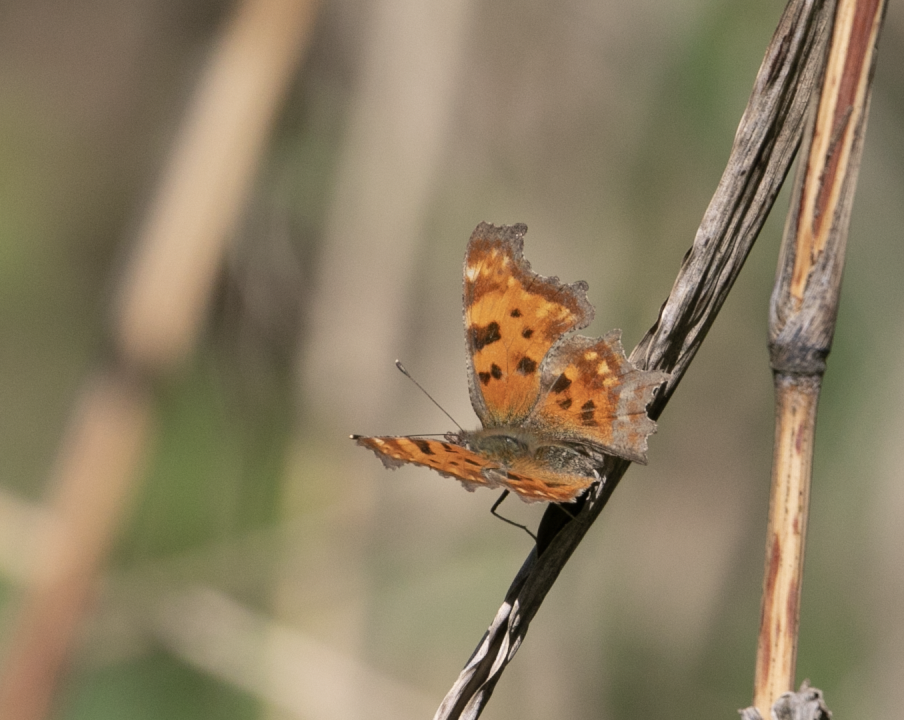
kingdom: Animalia
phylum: Arthropoda
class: Insecta
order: Lepidoptera
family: Nymphalidae
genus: Polygonia
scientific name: Polygonia c-album
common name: Comma
